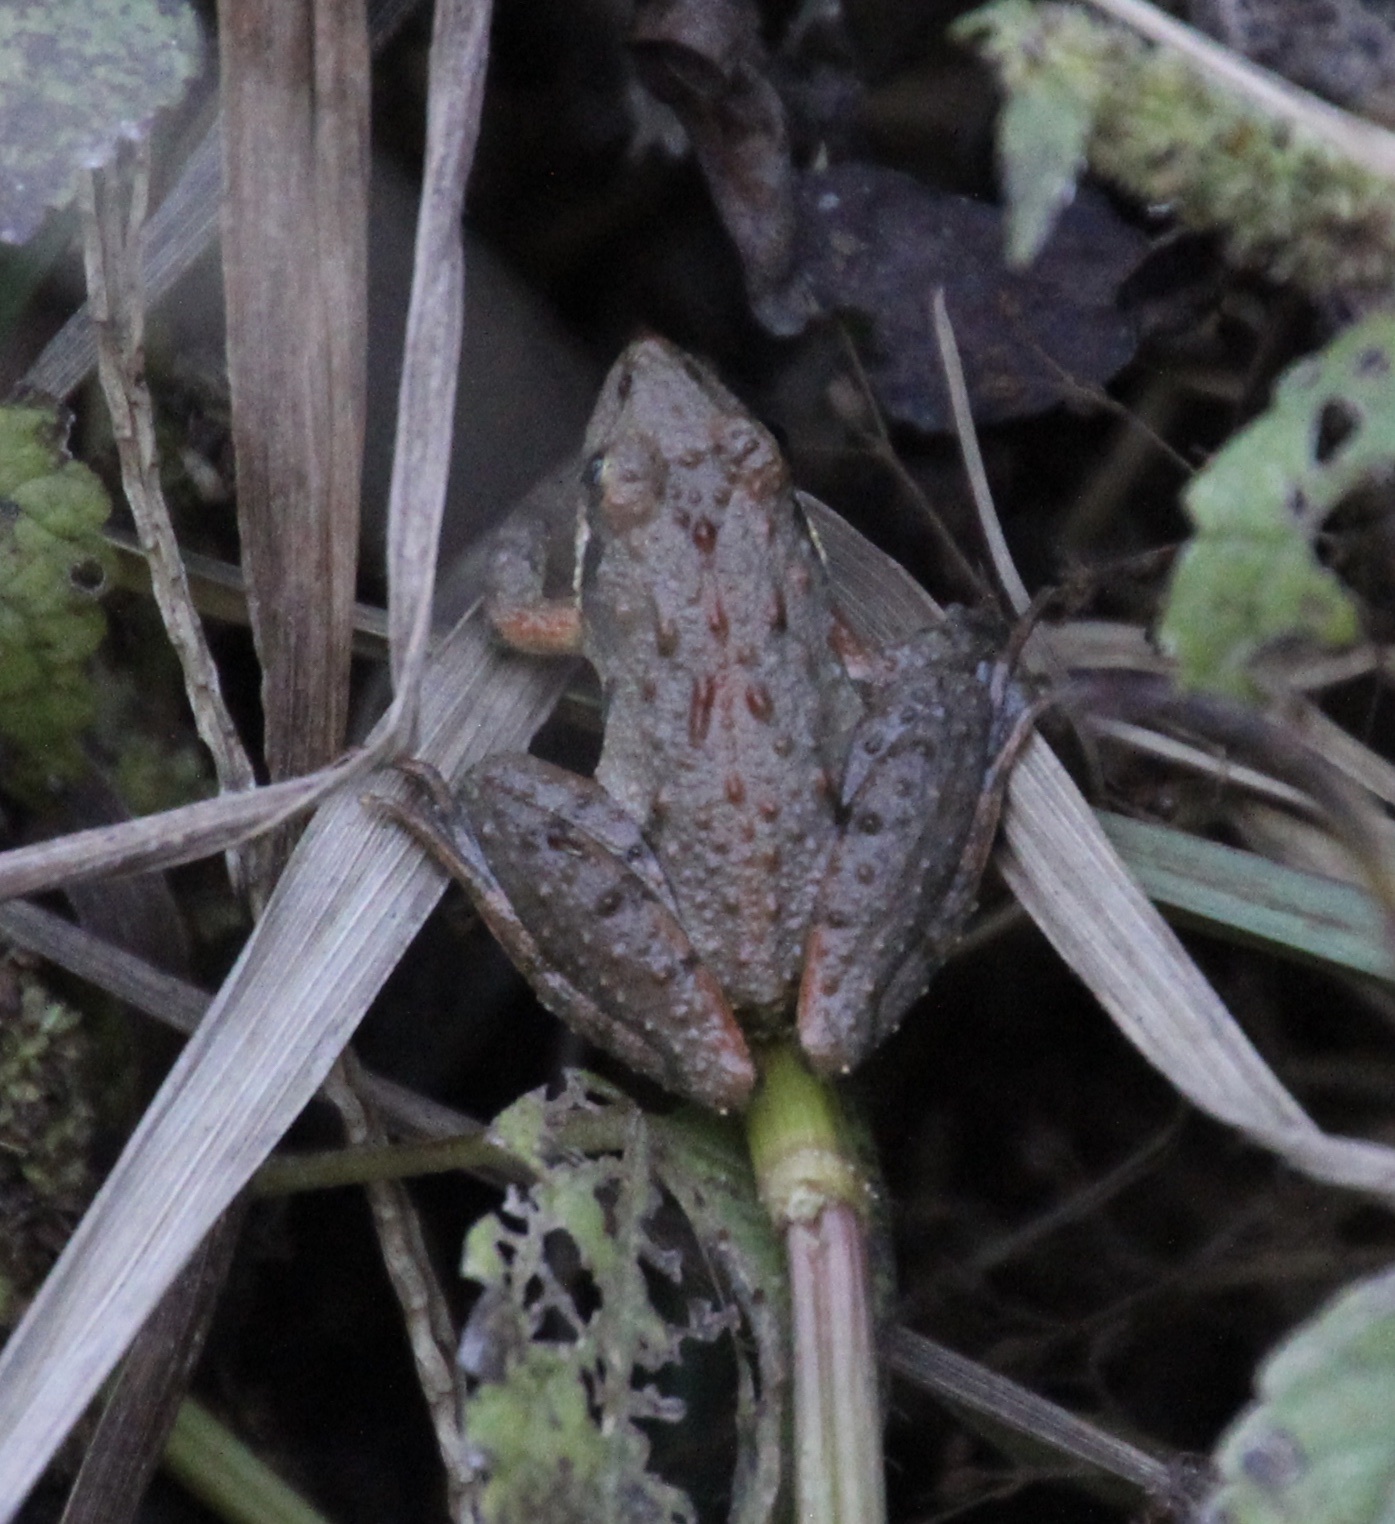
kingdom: Animalia
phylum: Chordata
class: Amphibia
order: Anura
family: Hylidae
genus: Acris
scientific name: Acris gryllus
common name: Southern cricket frog
